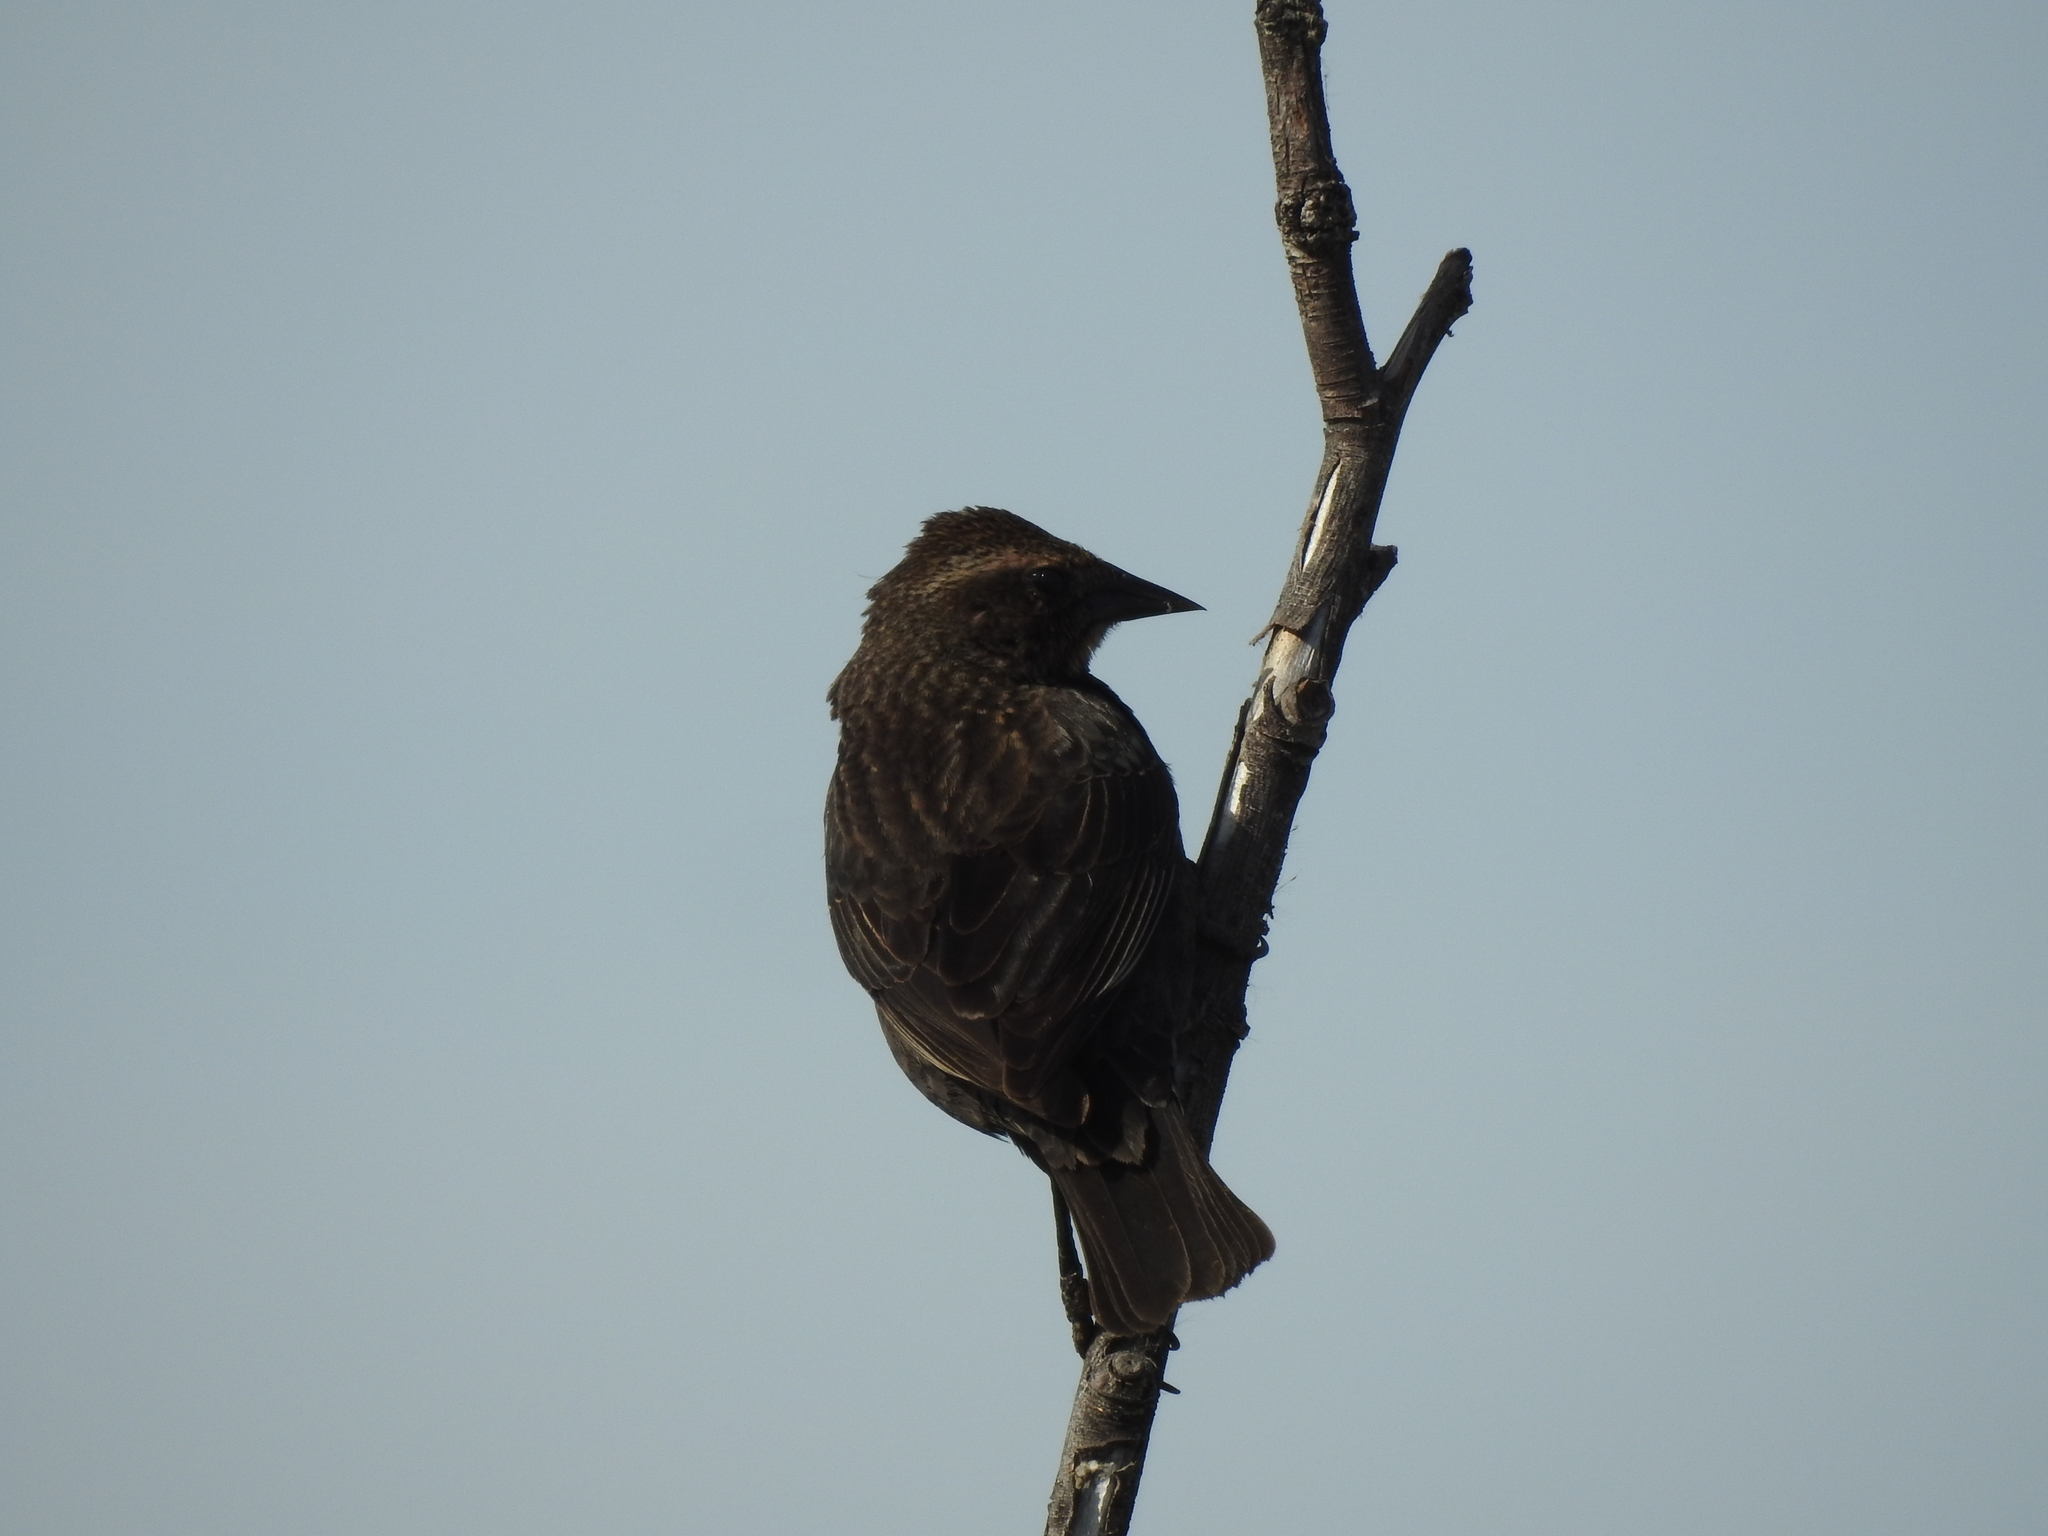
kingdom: Animalia
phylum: Chordata
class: Aves
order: Passeriformes
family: Icteridae
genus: Agelaius
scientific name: Agelaius phoeniceus
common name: Red-winged blackbird
